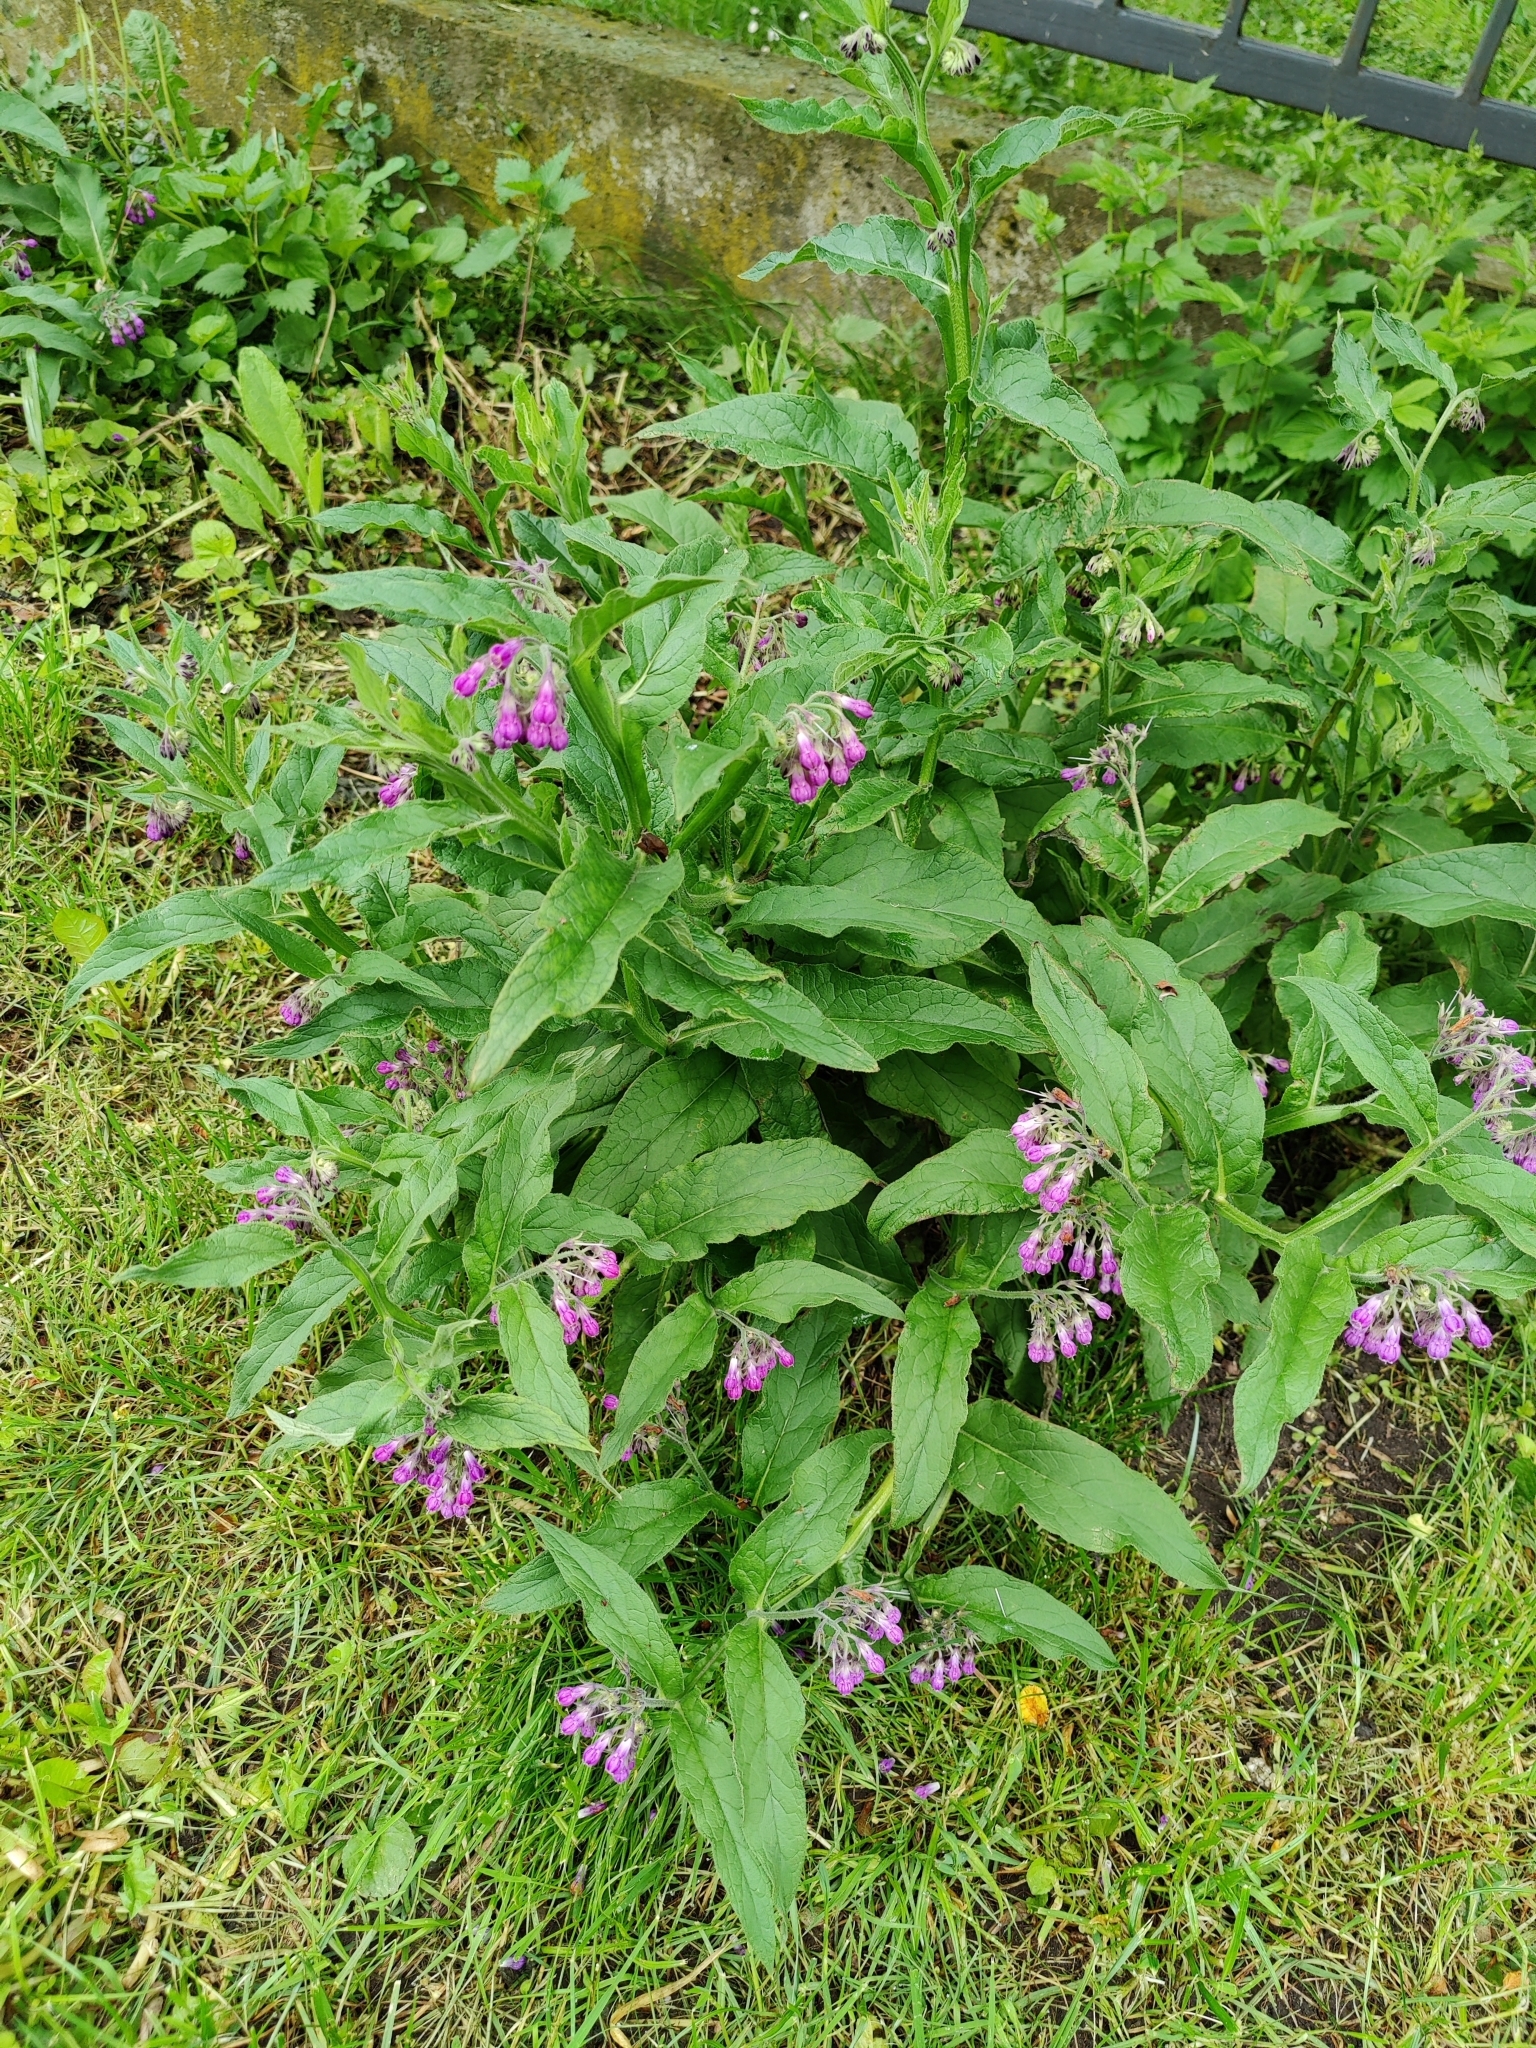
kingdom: Plantae
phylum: Tracheophyta
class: Magnoliopsida
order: Boraginales
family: Boraginaceae
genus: Symphytum
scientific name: Symphytum officinale
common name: Common comfrey
